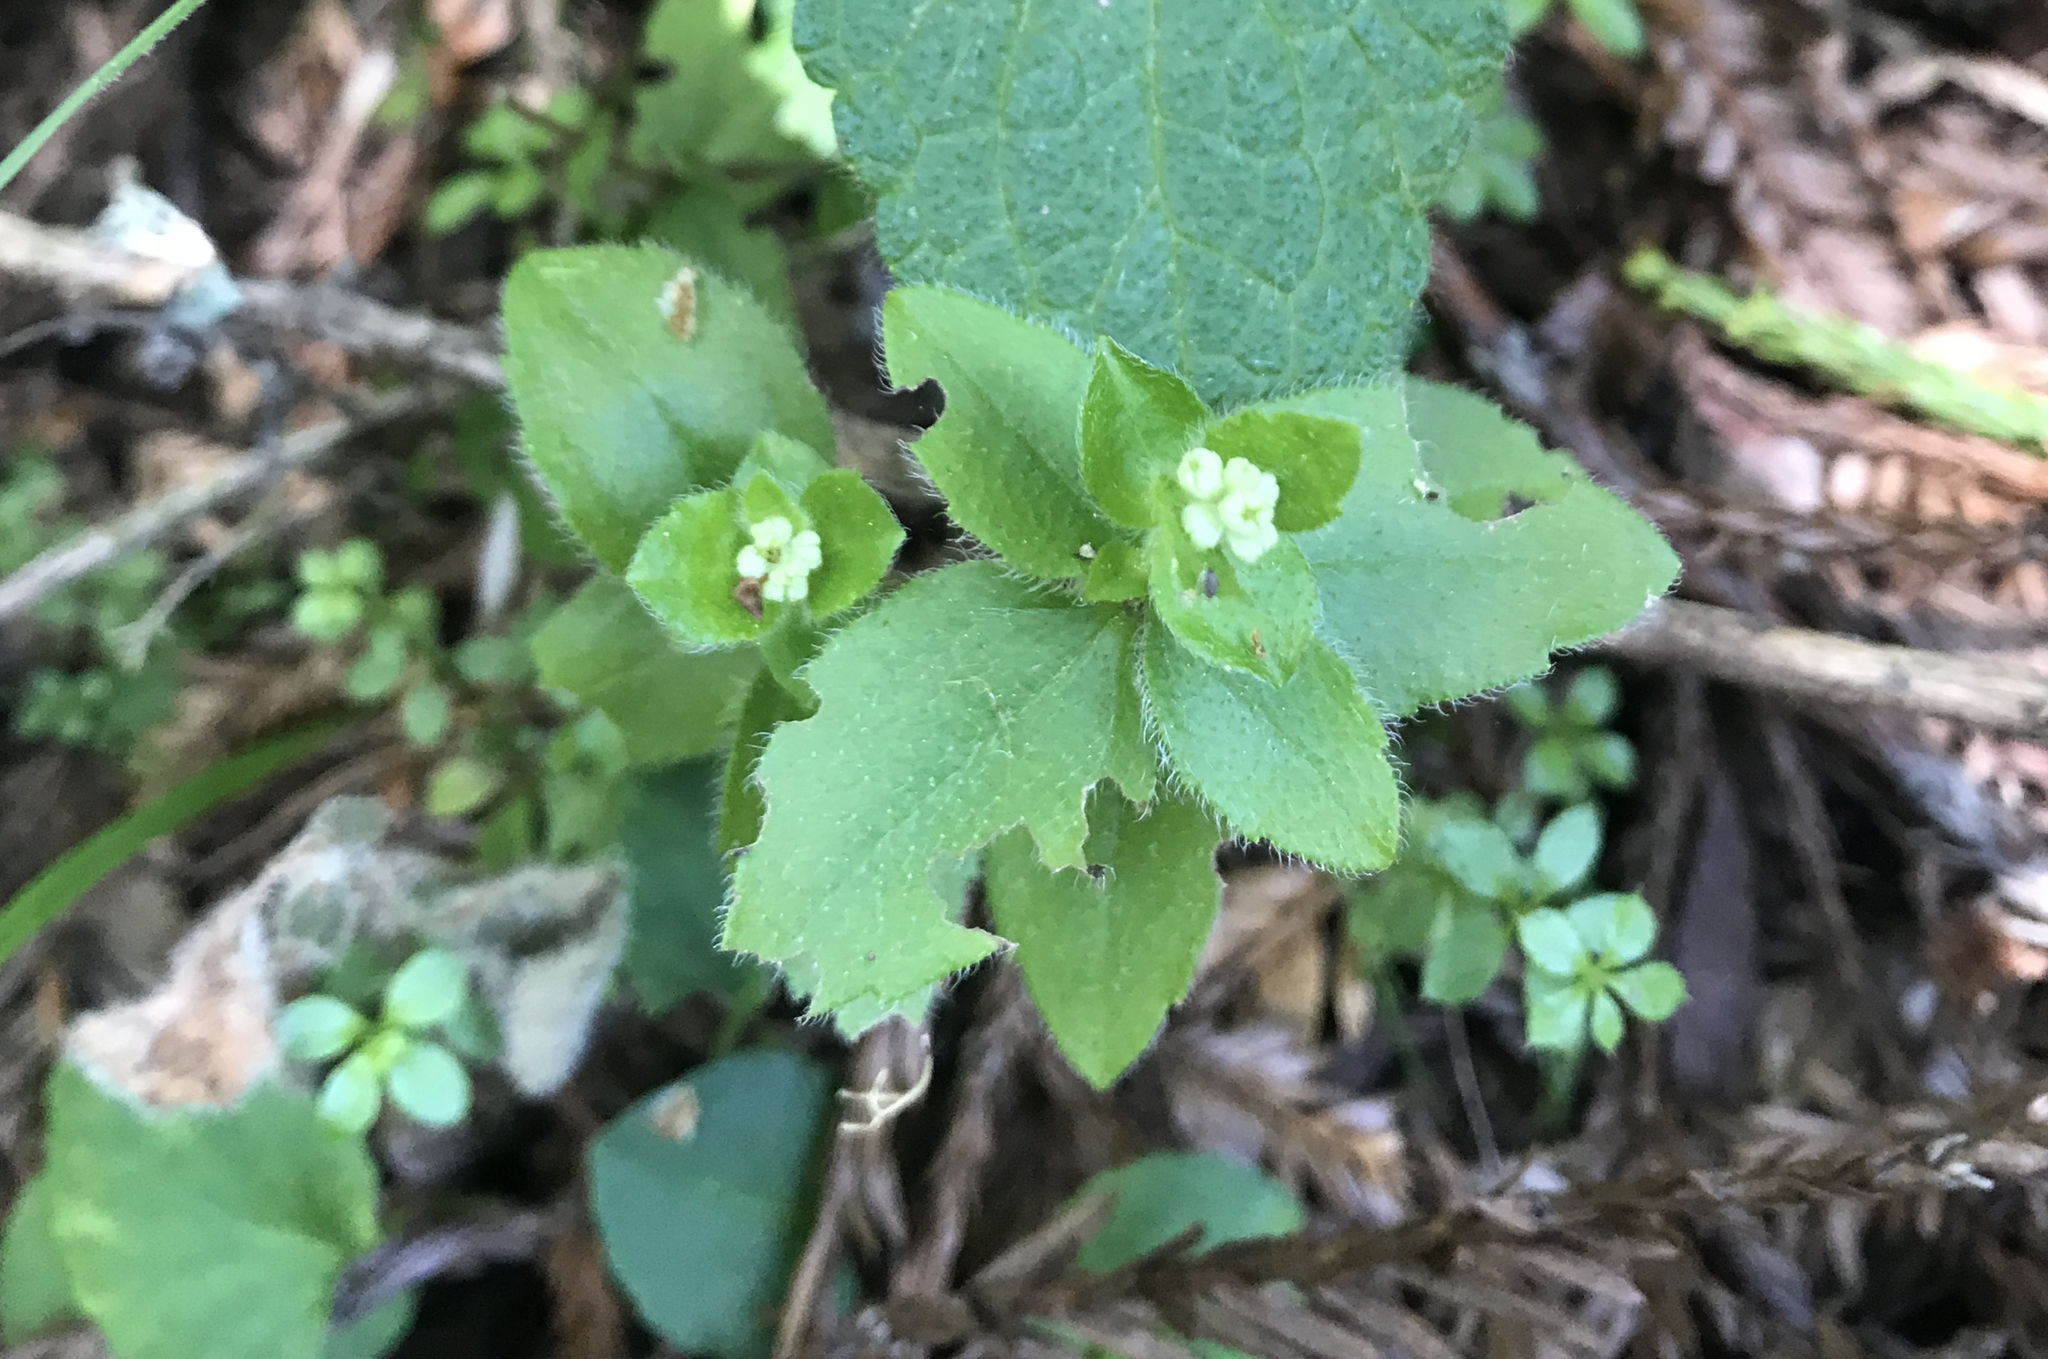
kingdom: Plantae
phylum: Tracheophyta
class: Magnoliopsida
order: Cornales
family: Hydrangeaceae
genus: Whipplea
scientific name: Whipplea modesta
